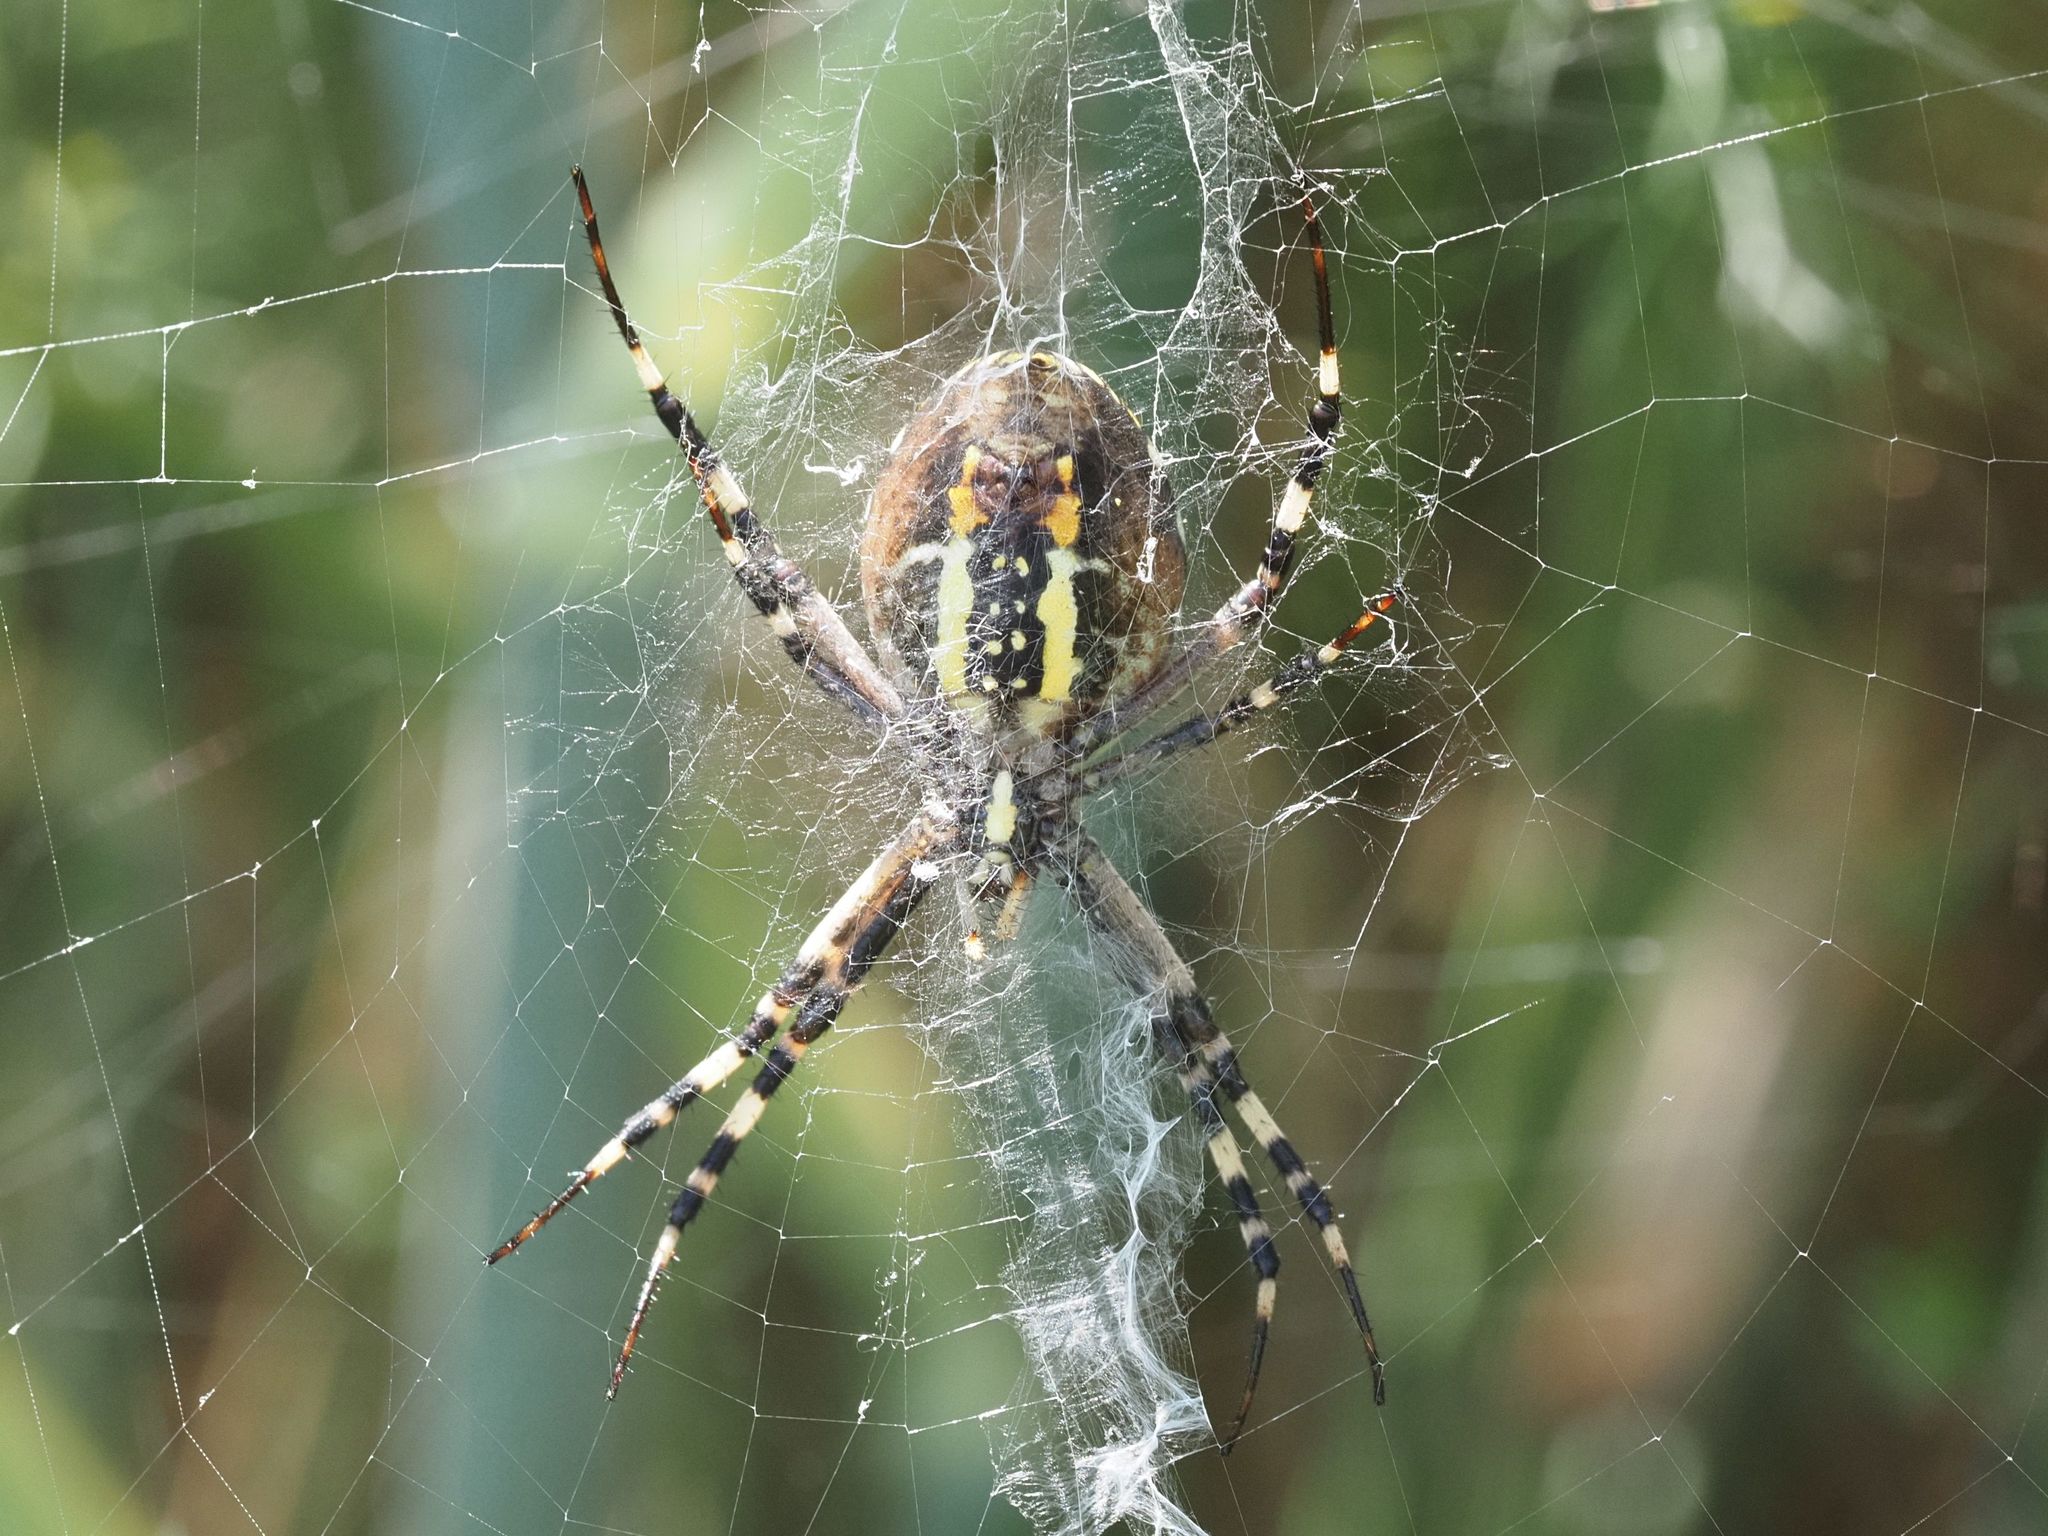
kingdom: Animalia
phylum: Arthropoda
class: Arachnida
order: Araneae
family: Araneidae
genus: Argiope
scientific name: Argiope bruennichi
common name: Wasp spider
